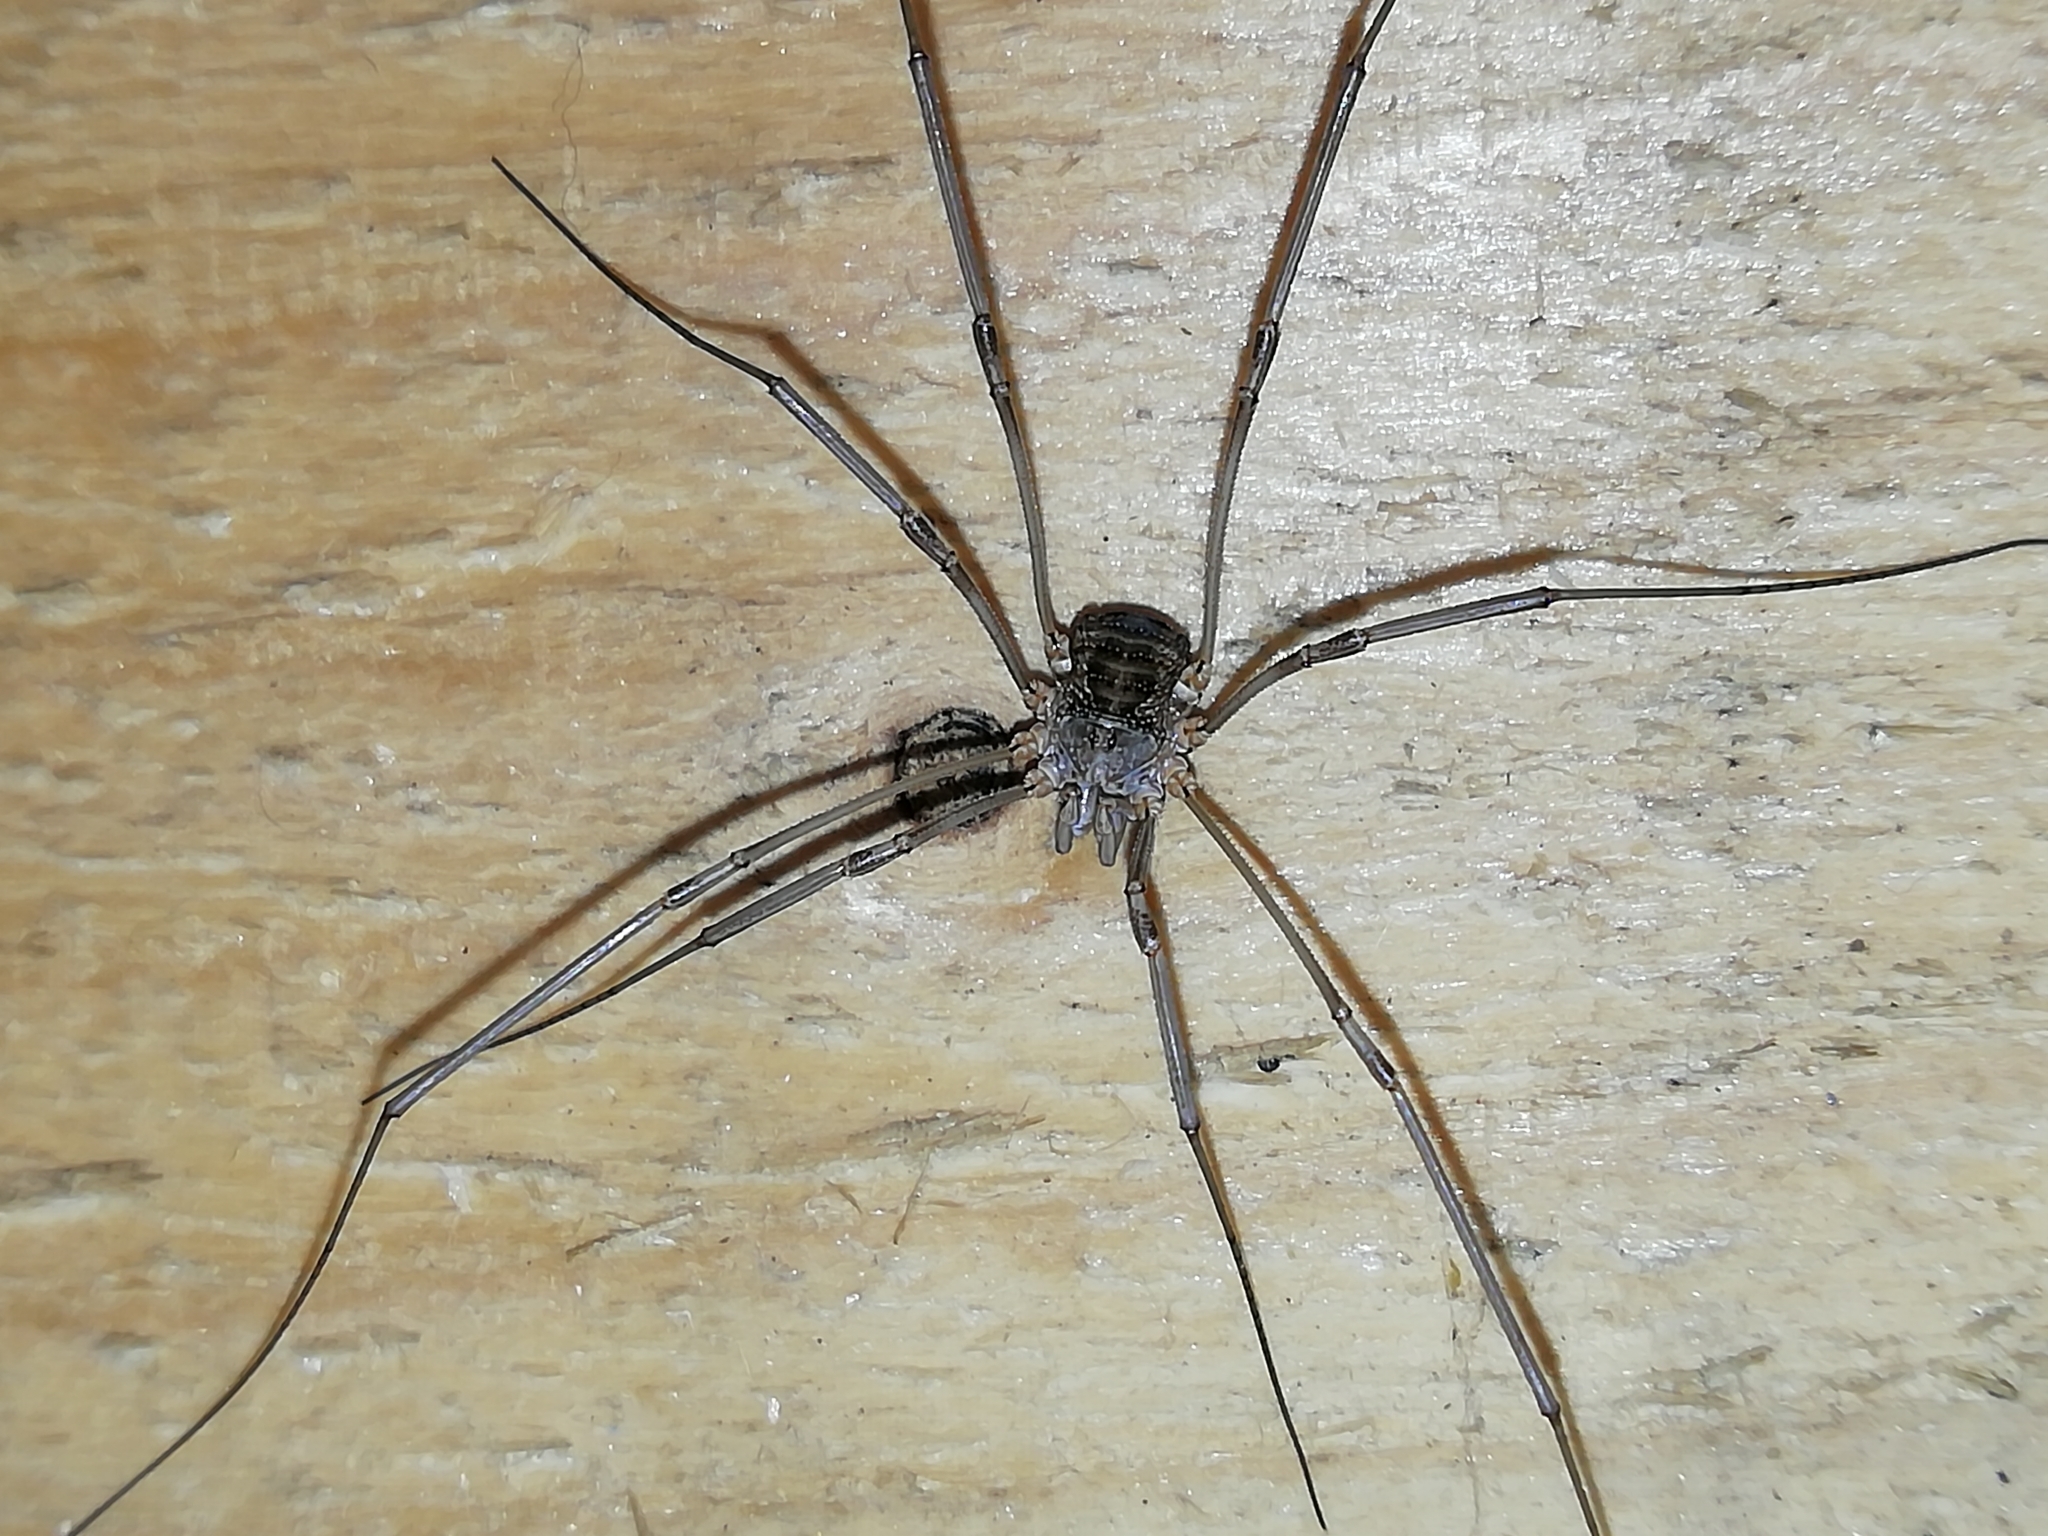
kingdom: Animalia
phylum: Arthropoda
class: Arachnida
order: Opiliones
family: Phalangiidae
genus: Phalangium
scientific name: Phalangium opilio
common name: Daddy longleg
